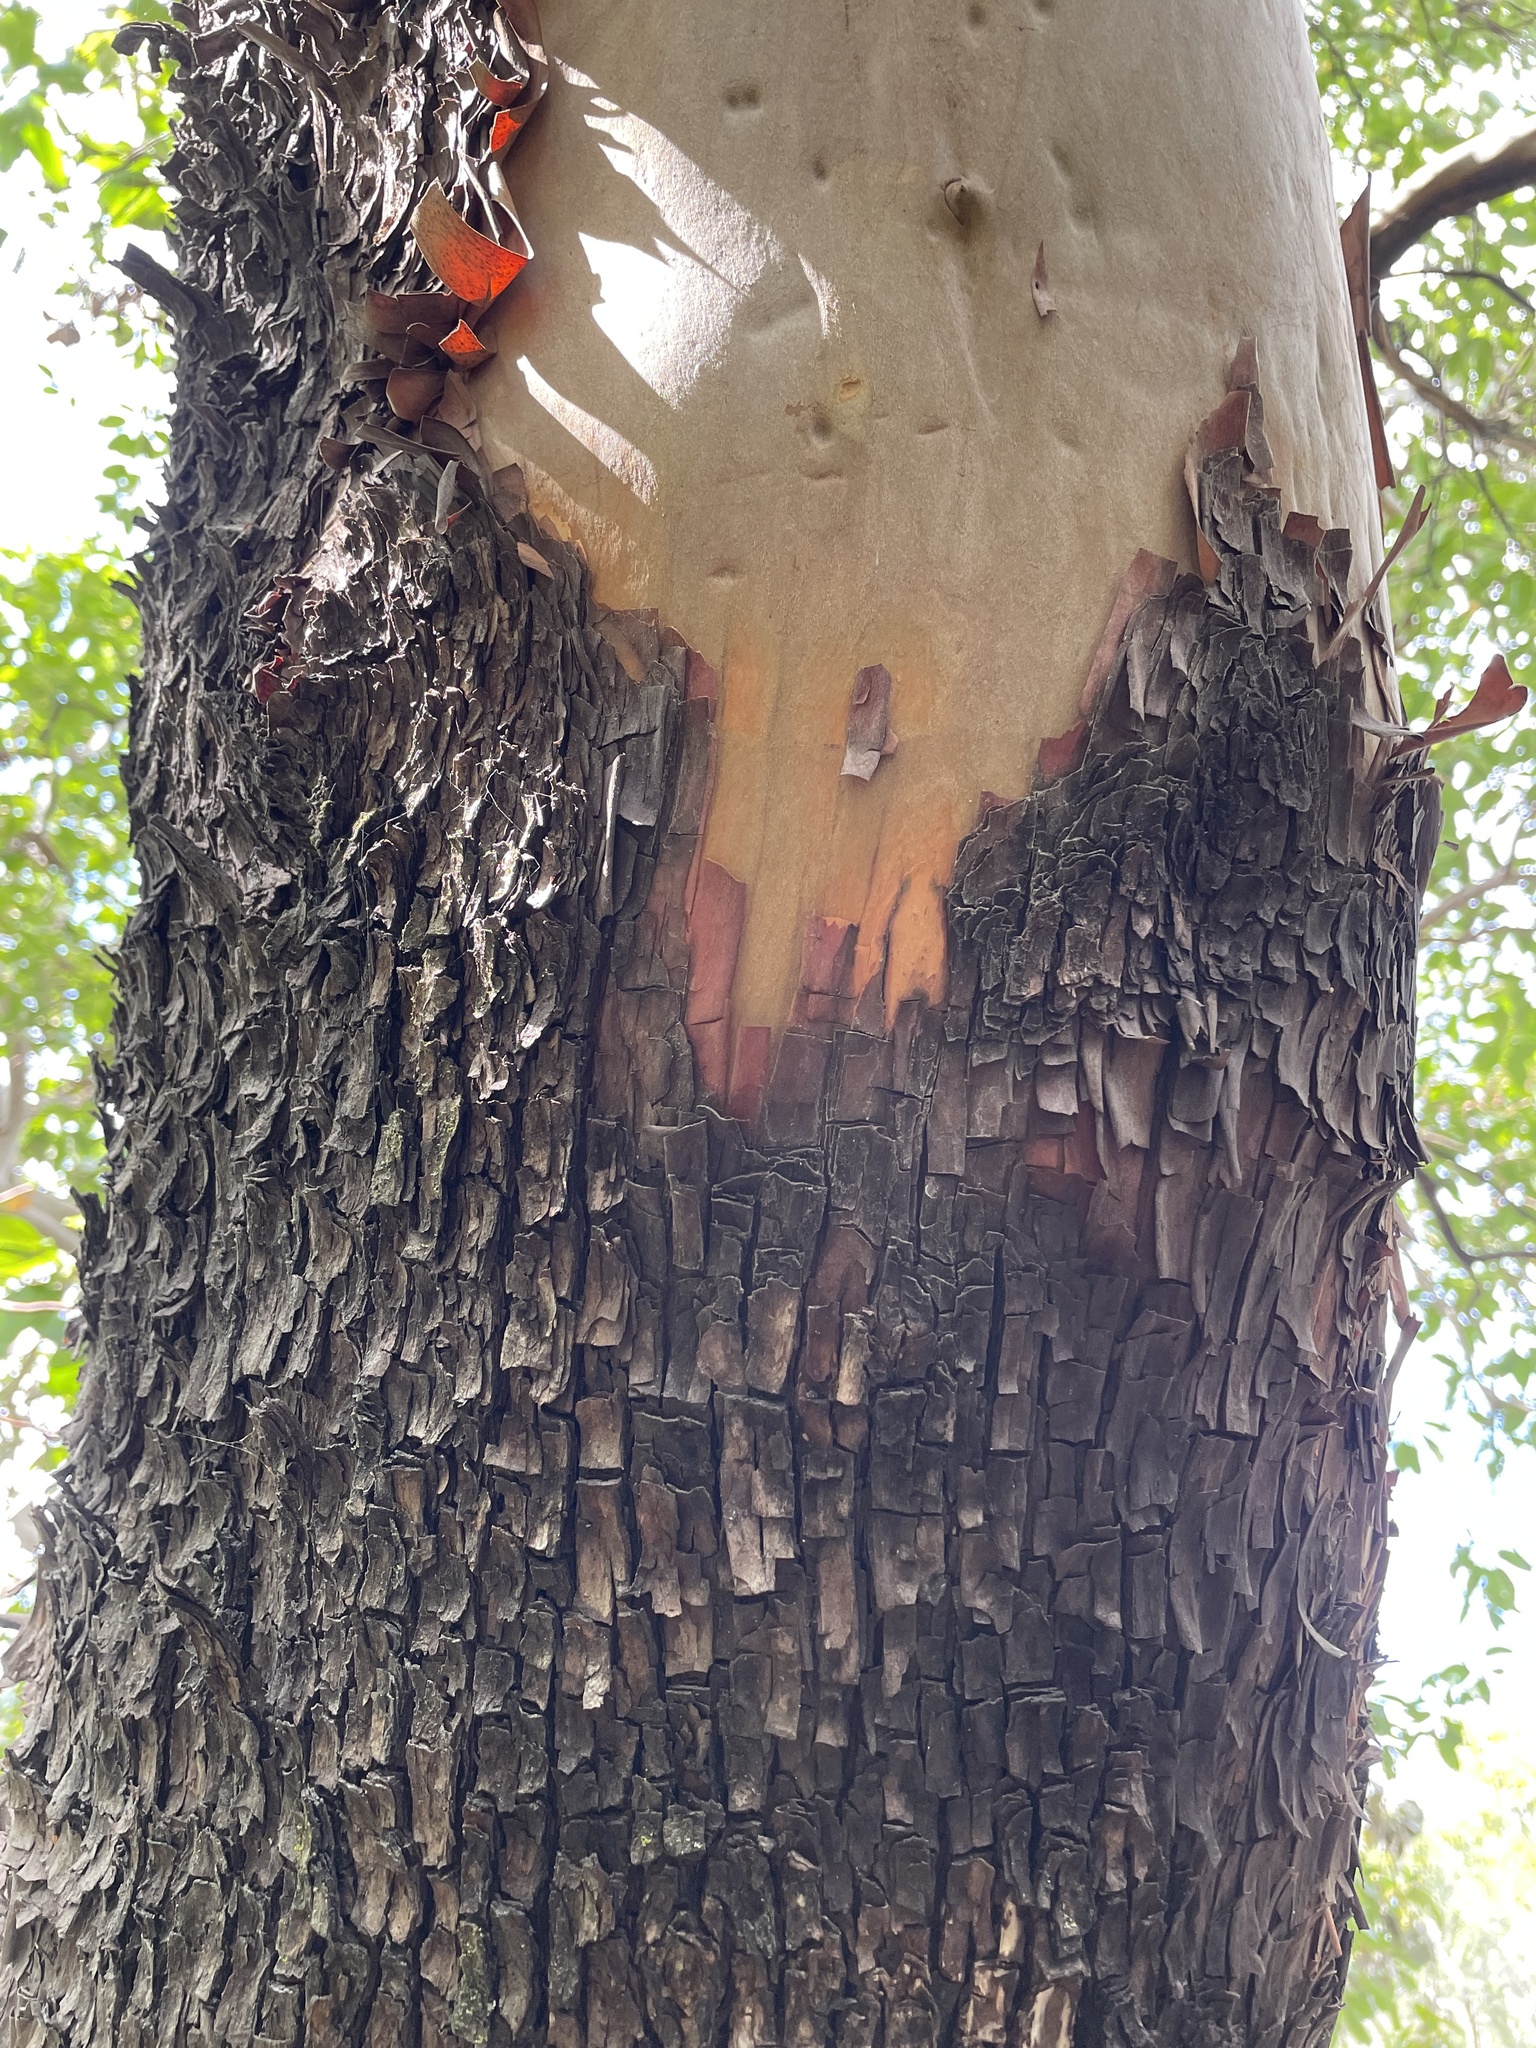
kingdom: Plantae
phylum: Tracheophyta
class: Magnoliopsida
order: Ericales
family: Ericaceae
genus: Arbutus
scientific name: Arbutus menziesii
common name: Pacific madrone
